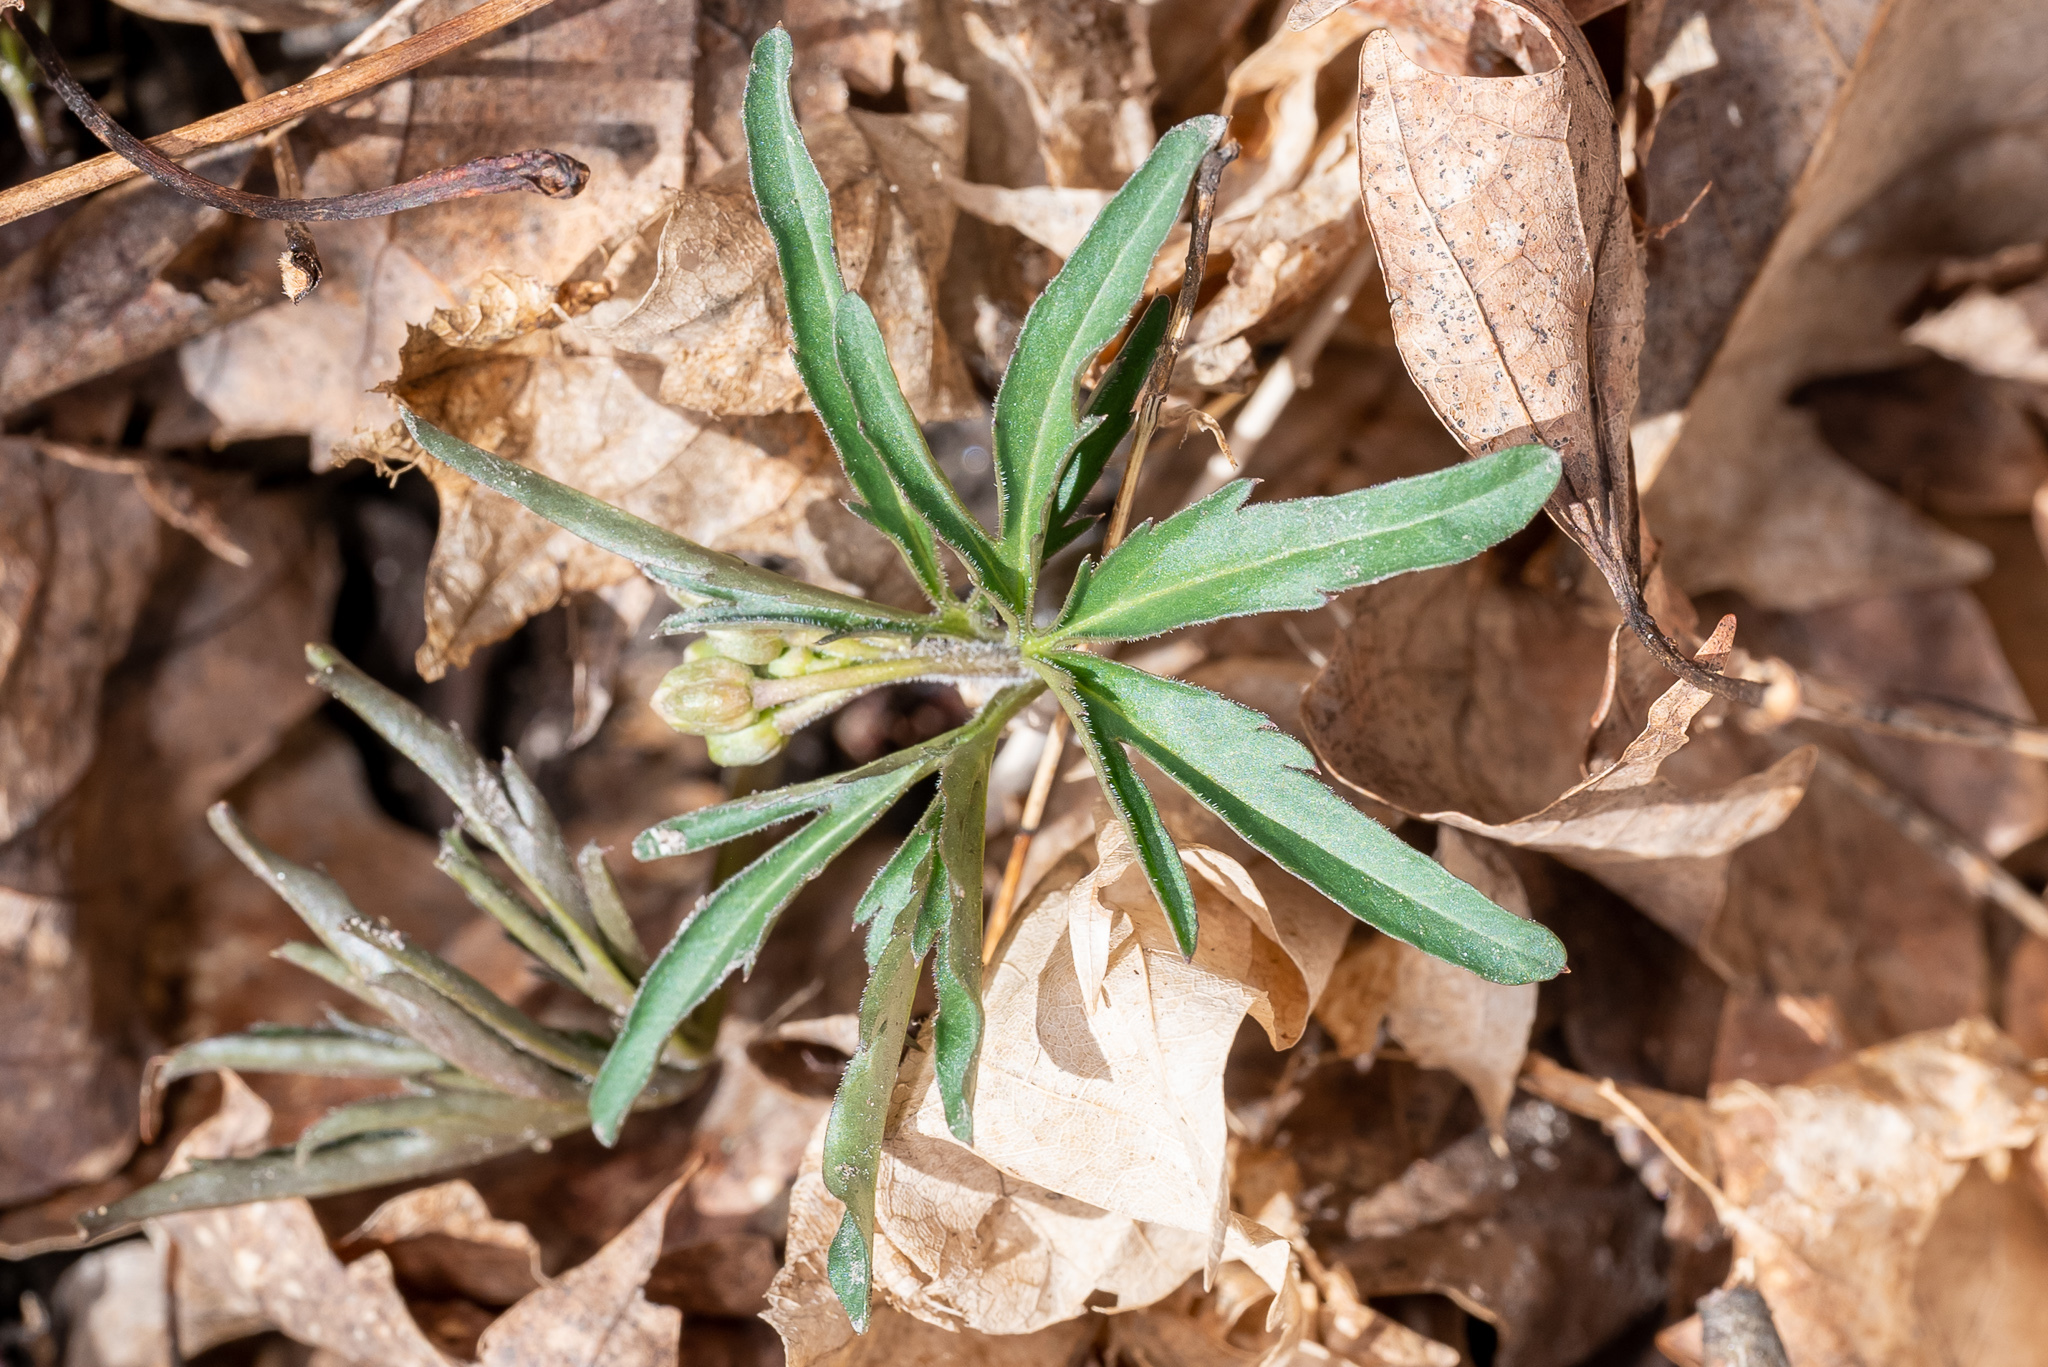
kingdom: Plantae
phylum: Tracheophyta
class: Magnoliopsida
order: Brassicales
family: Brassicaceae
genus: Cardamine
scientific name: Cardamine concatenata
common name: Cut-leaf toothcup
